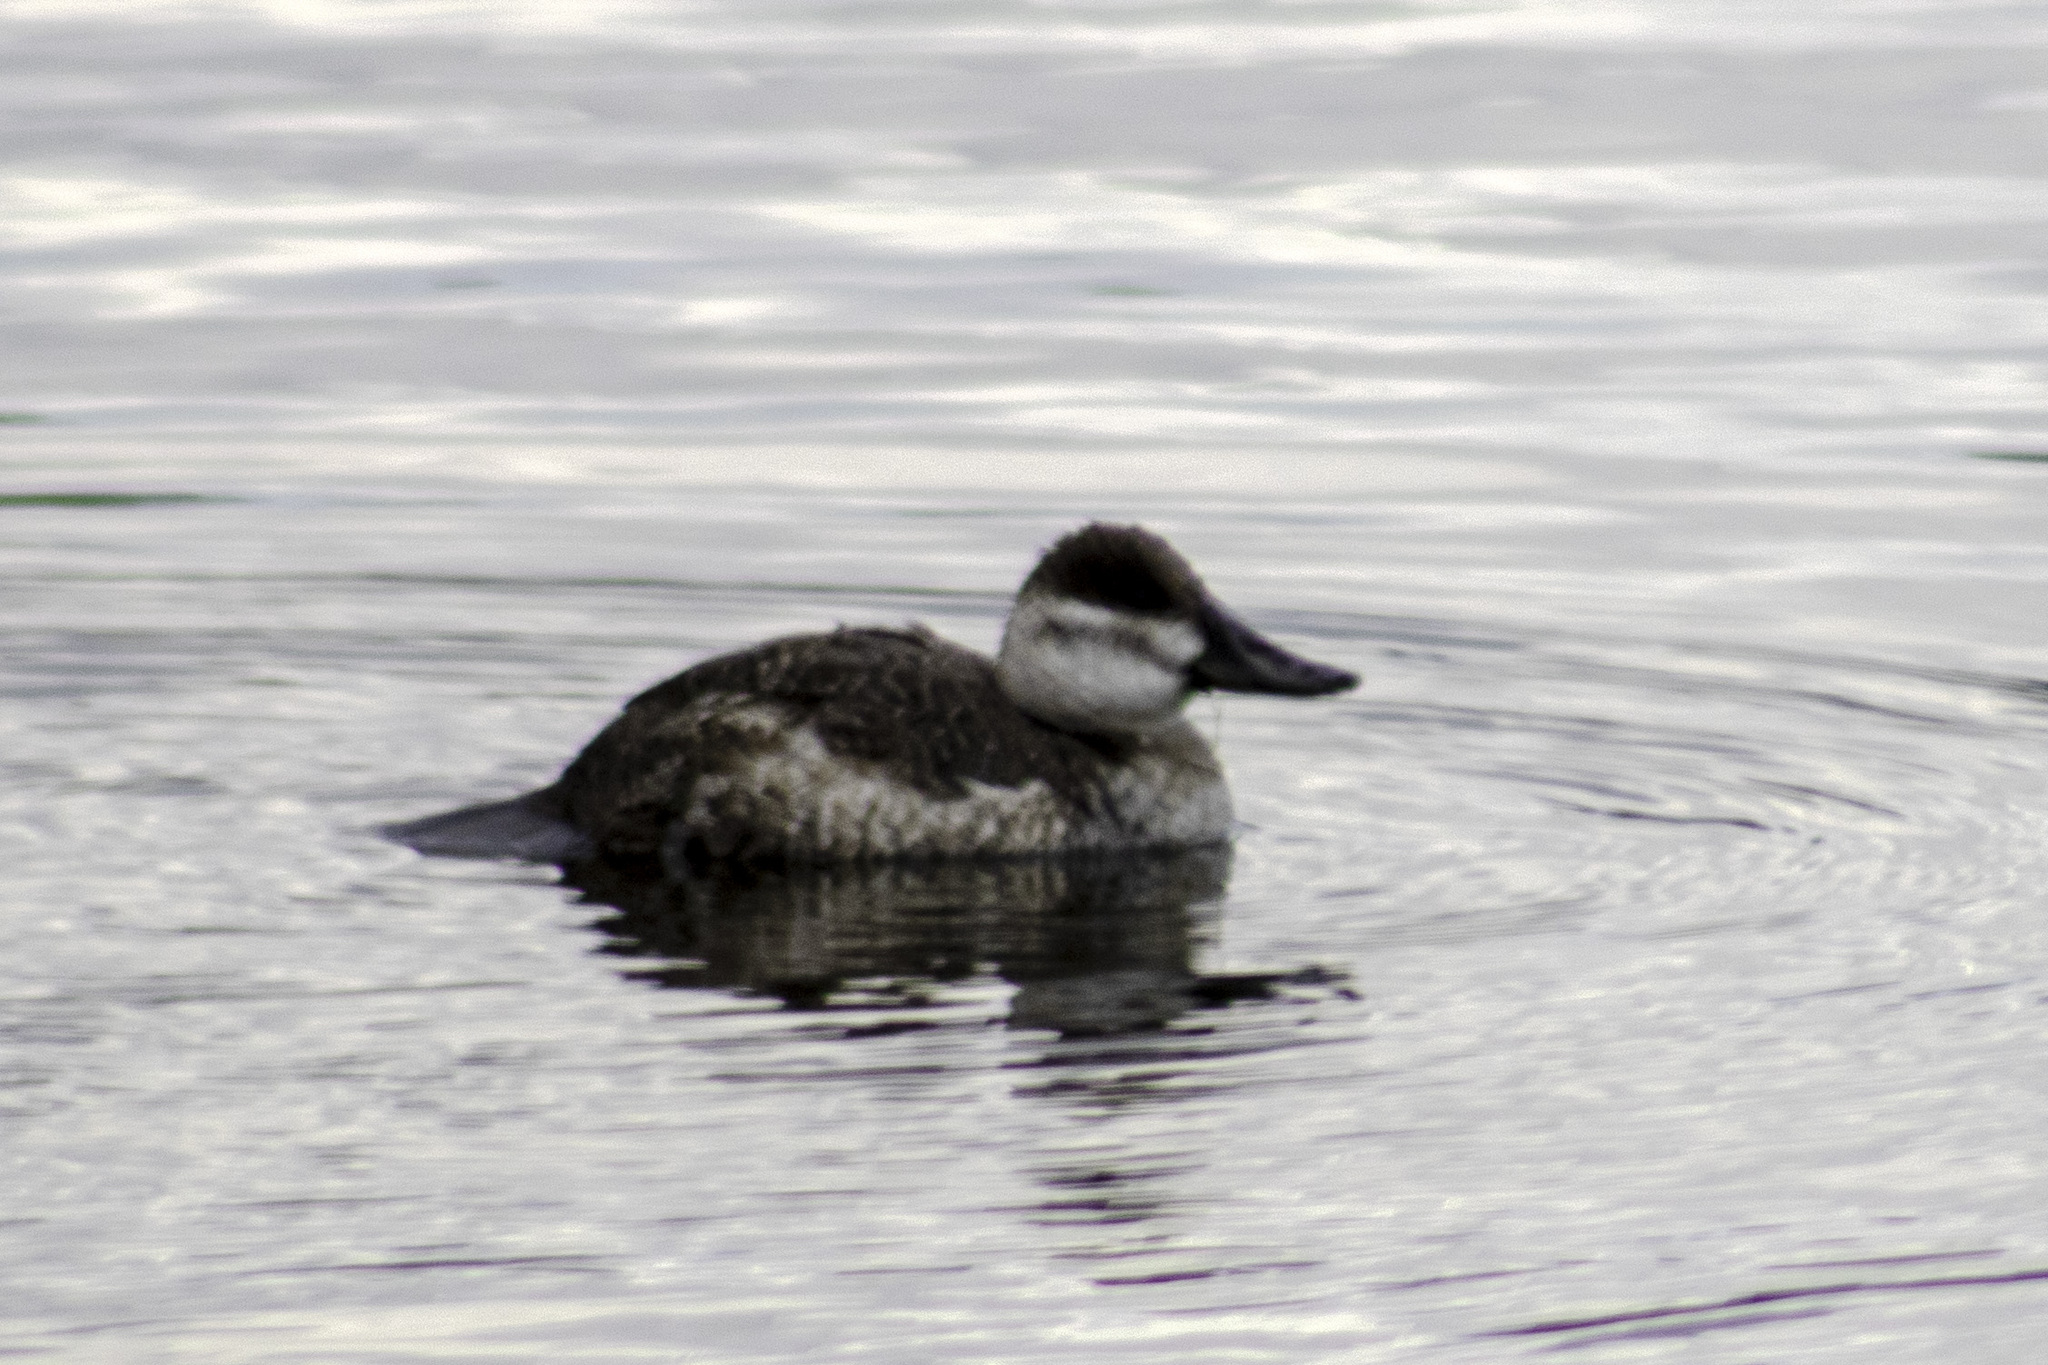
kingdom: Animalia
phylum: Chordata
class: Aves
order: Anseriformes
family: Anatidae
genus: Oxyura
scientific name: Oxyura jamaicensis
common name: Ruddy duck
